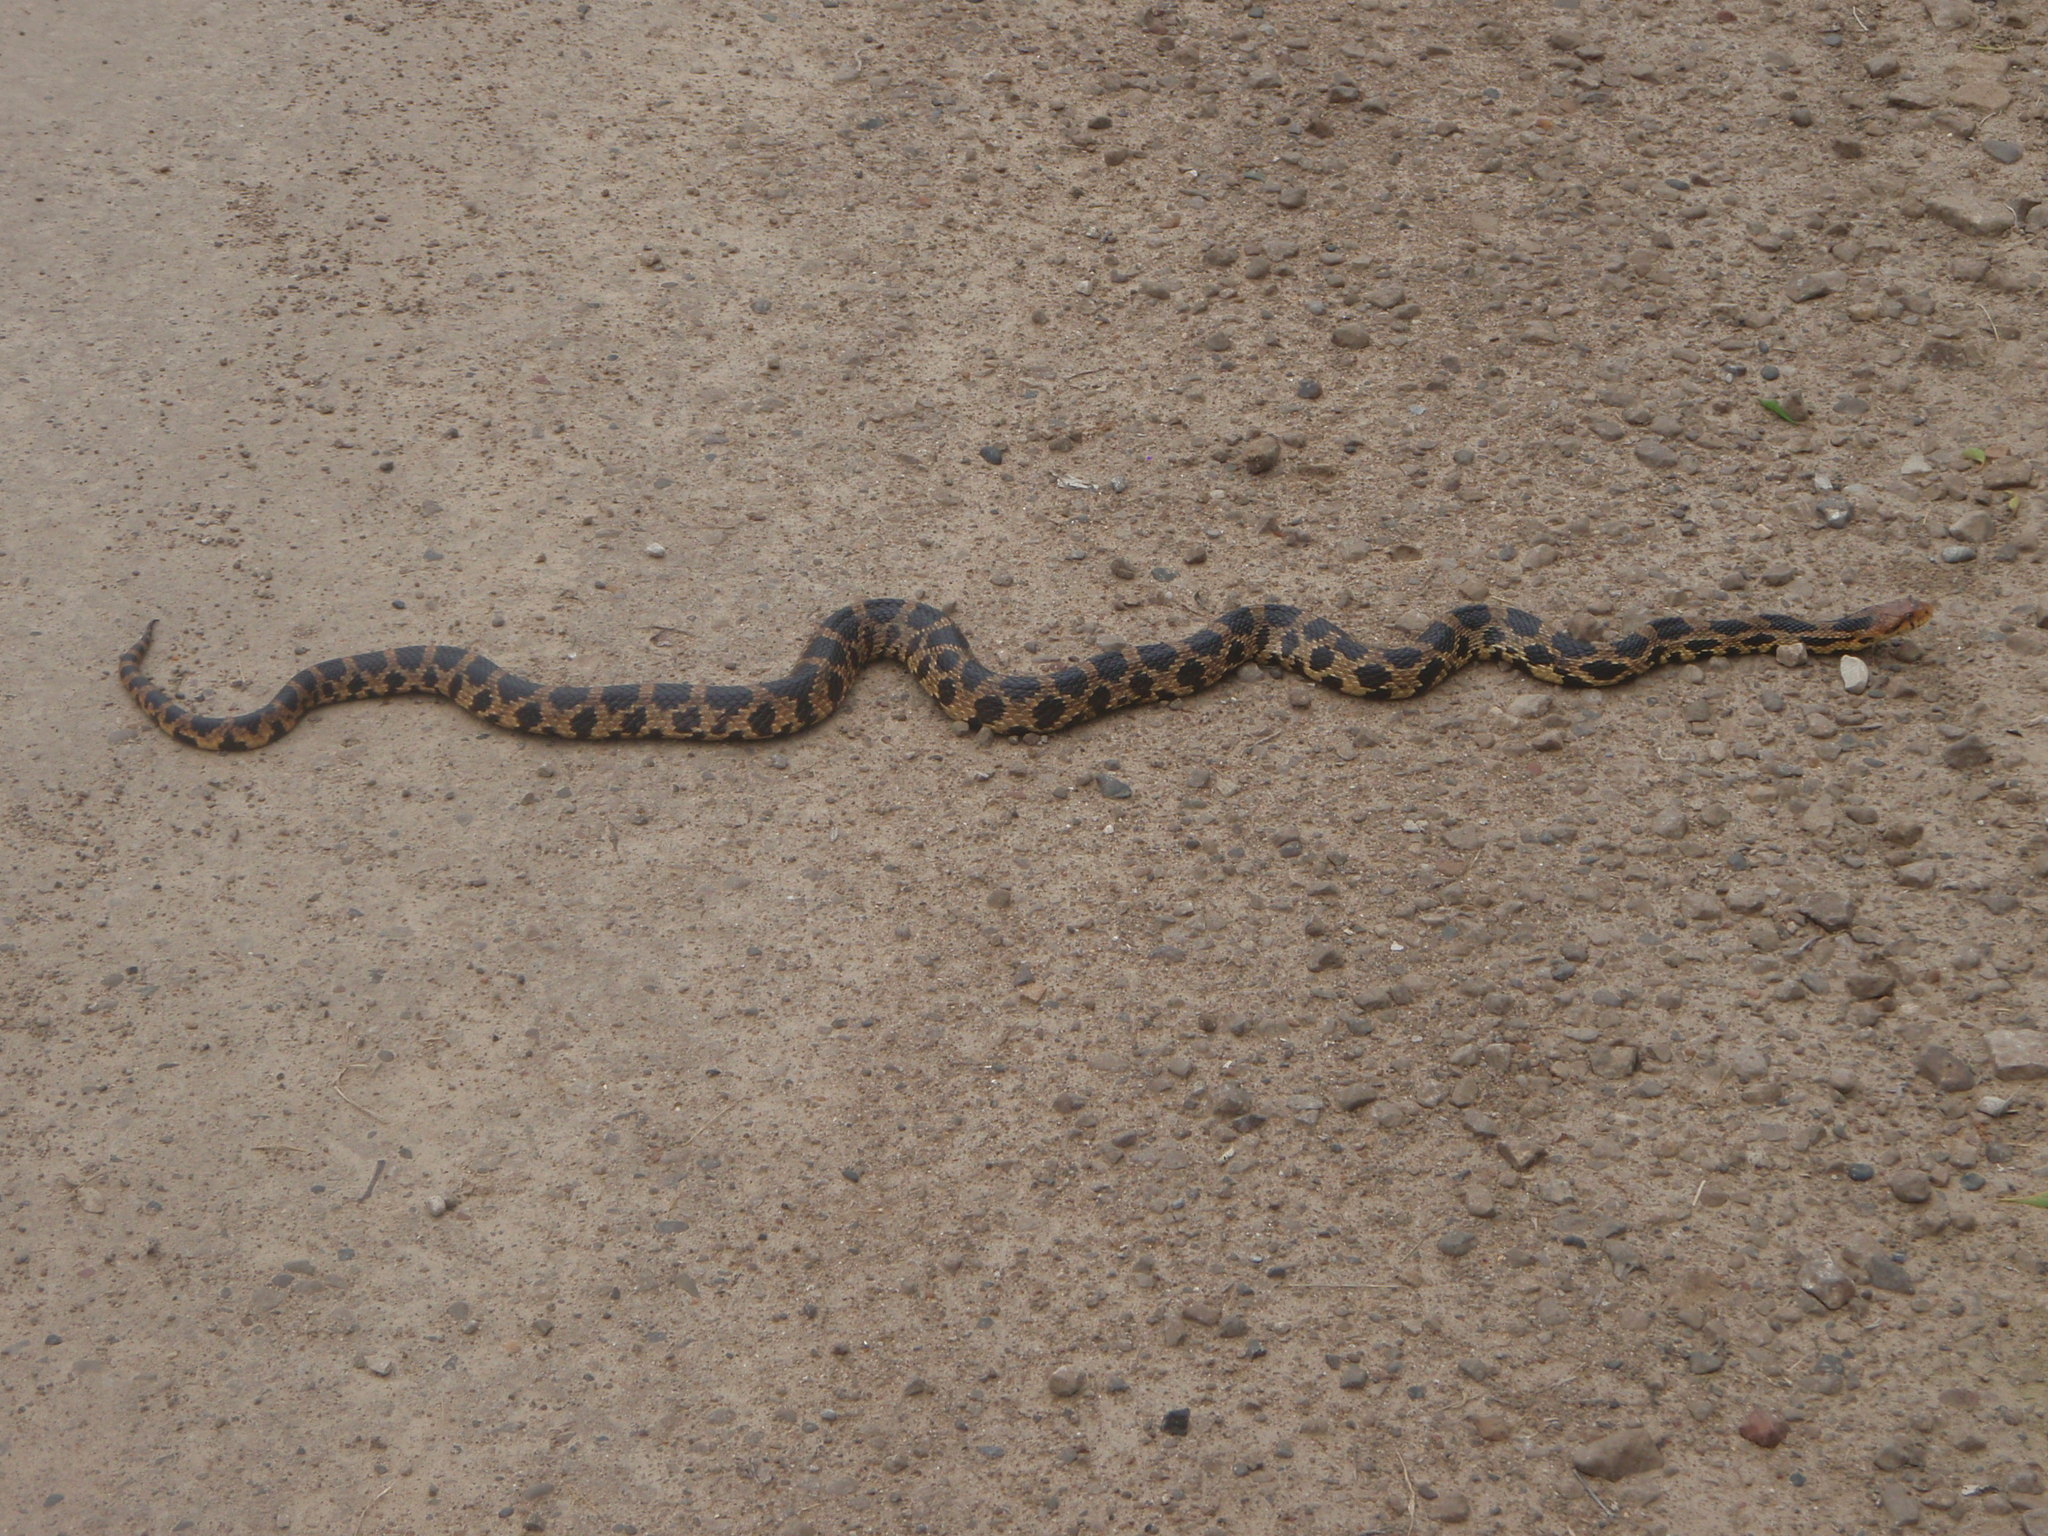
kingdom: Animalia
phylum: Chordata
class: Squamata
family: Colubridae
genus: Pantherophis
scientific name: Pantherophis vulpinus
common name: Eastern fox snake
